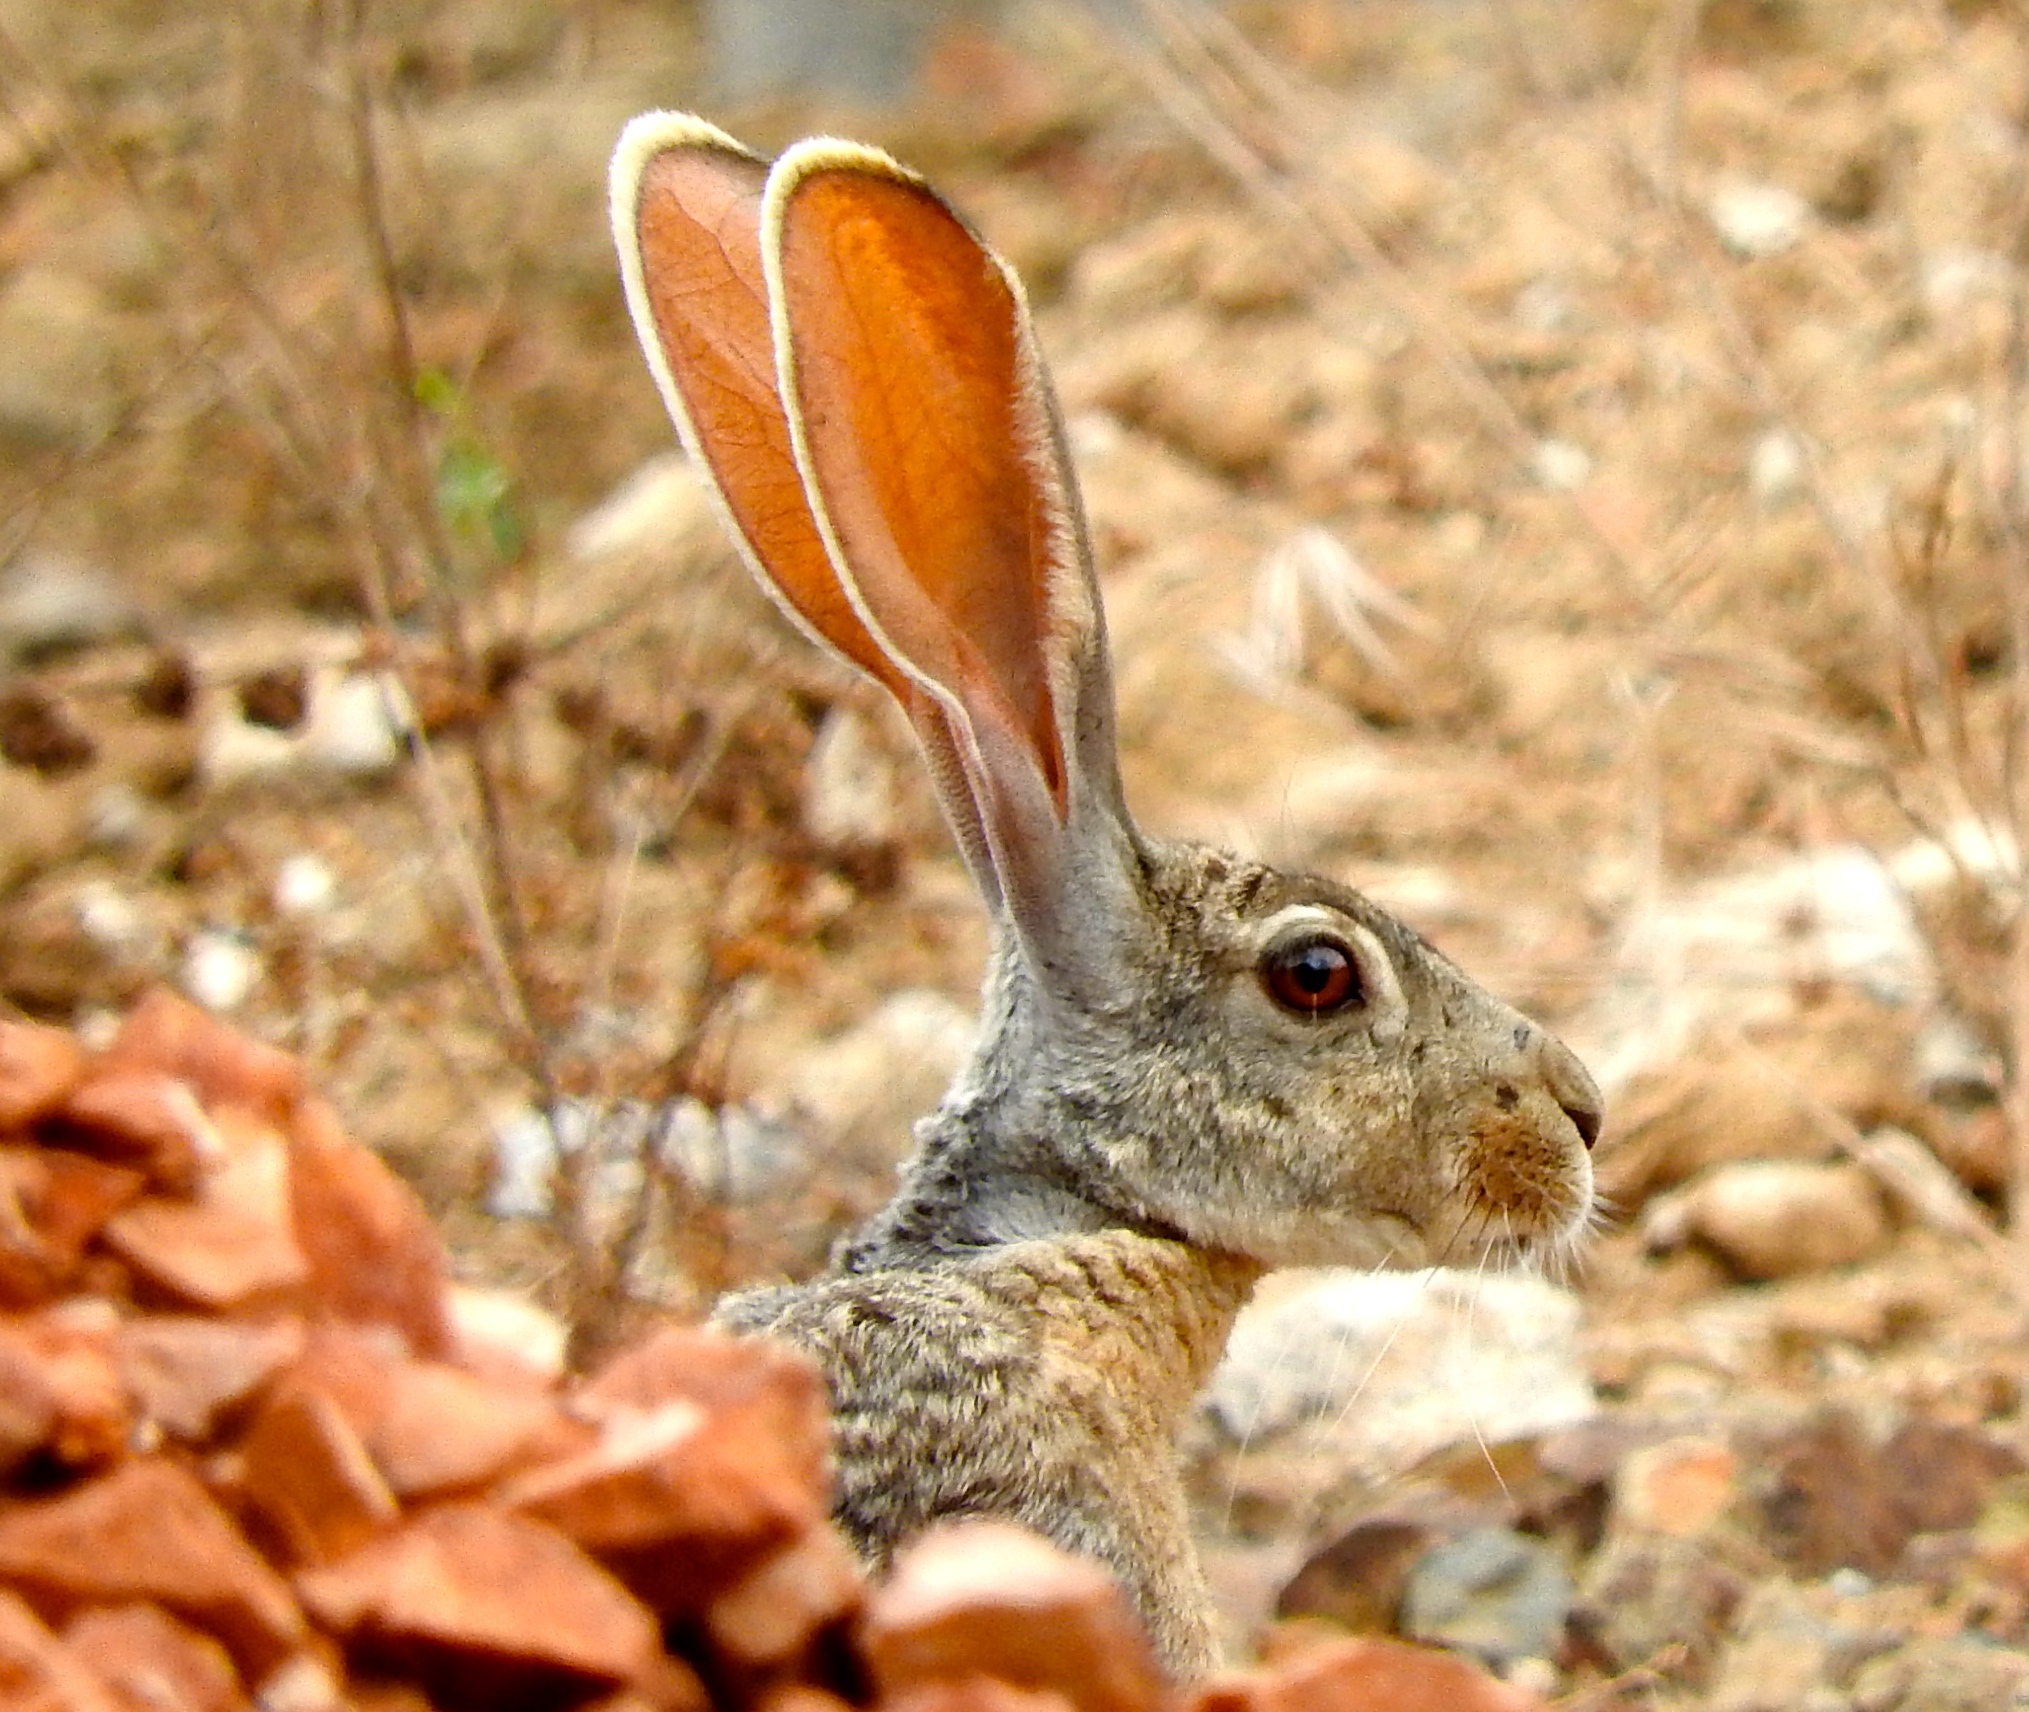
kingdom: Animalia
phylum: Chordata
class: Mammalia
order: Lagomorpha
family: Leporidae
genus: Lepus
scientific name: Lepus alleni
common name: Antelope jackrabbit
